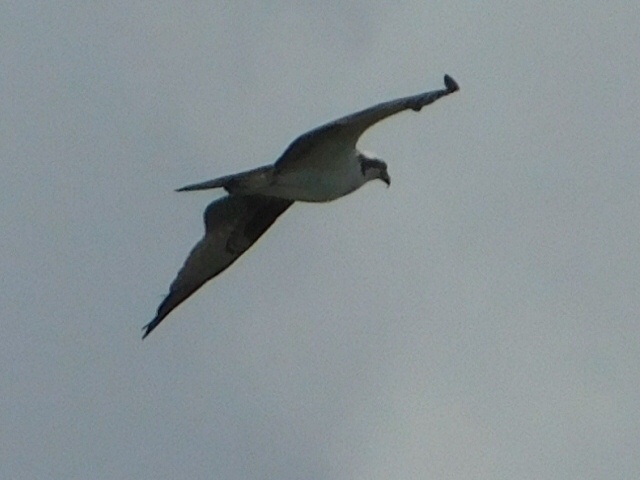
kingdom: Animalia
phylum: Chordata
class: Aves
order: Accipitriformes
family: Pandionidae
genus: Pandion
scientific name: Pandion haliaetus
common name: Osprey
